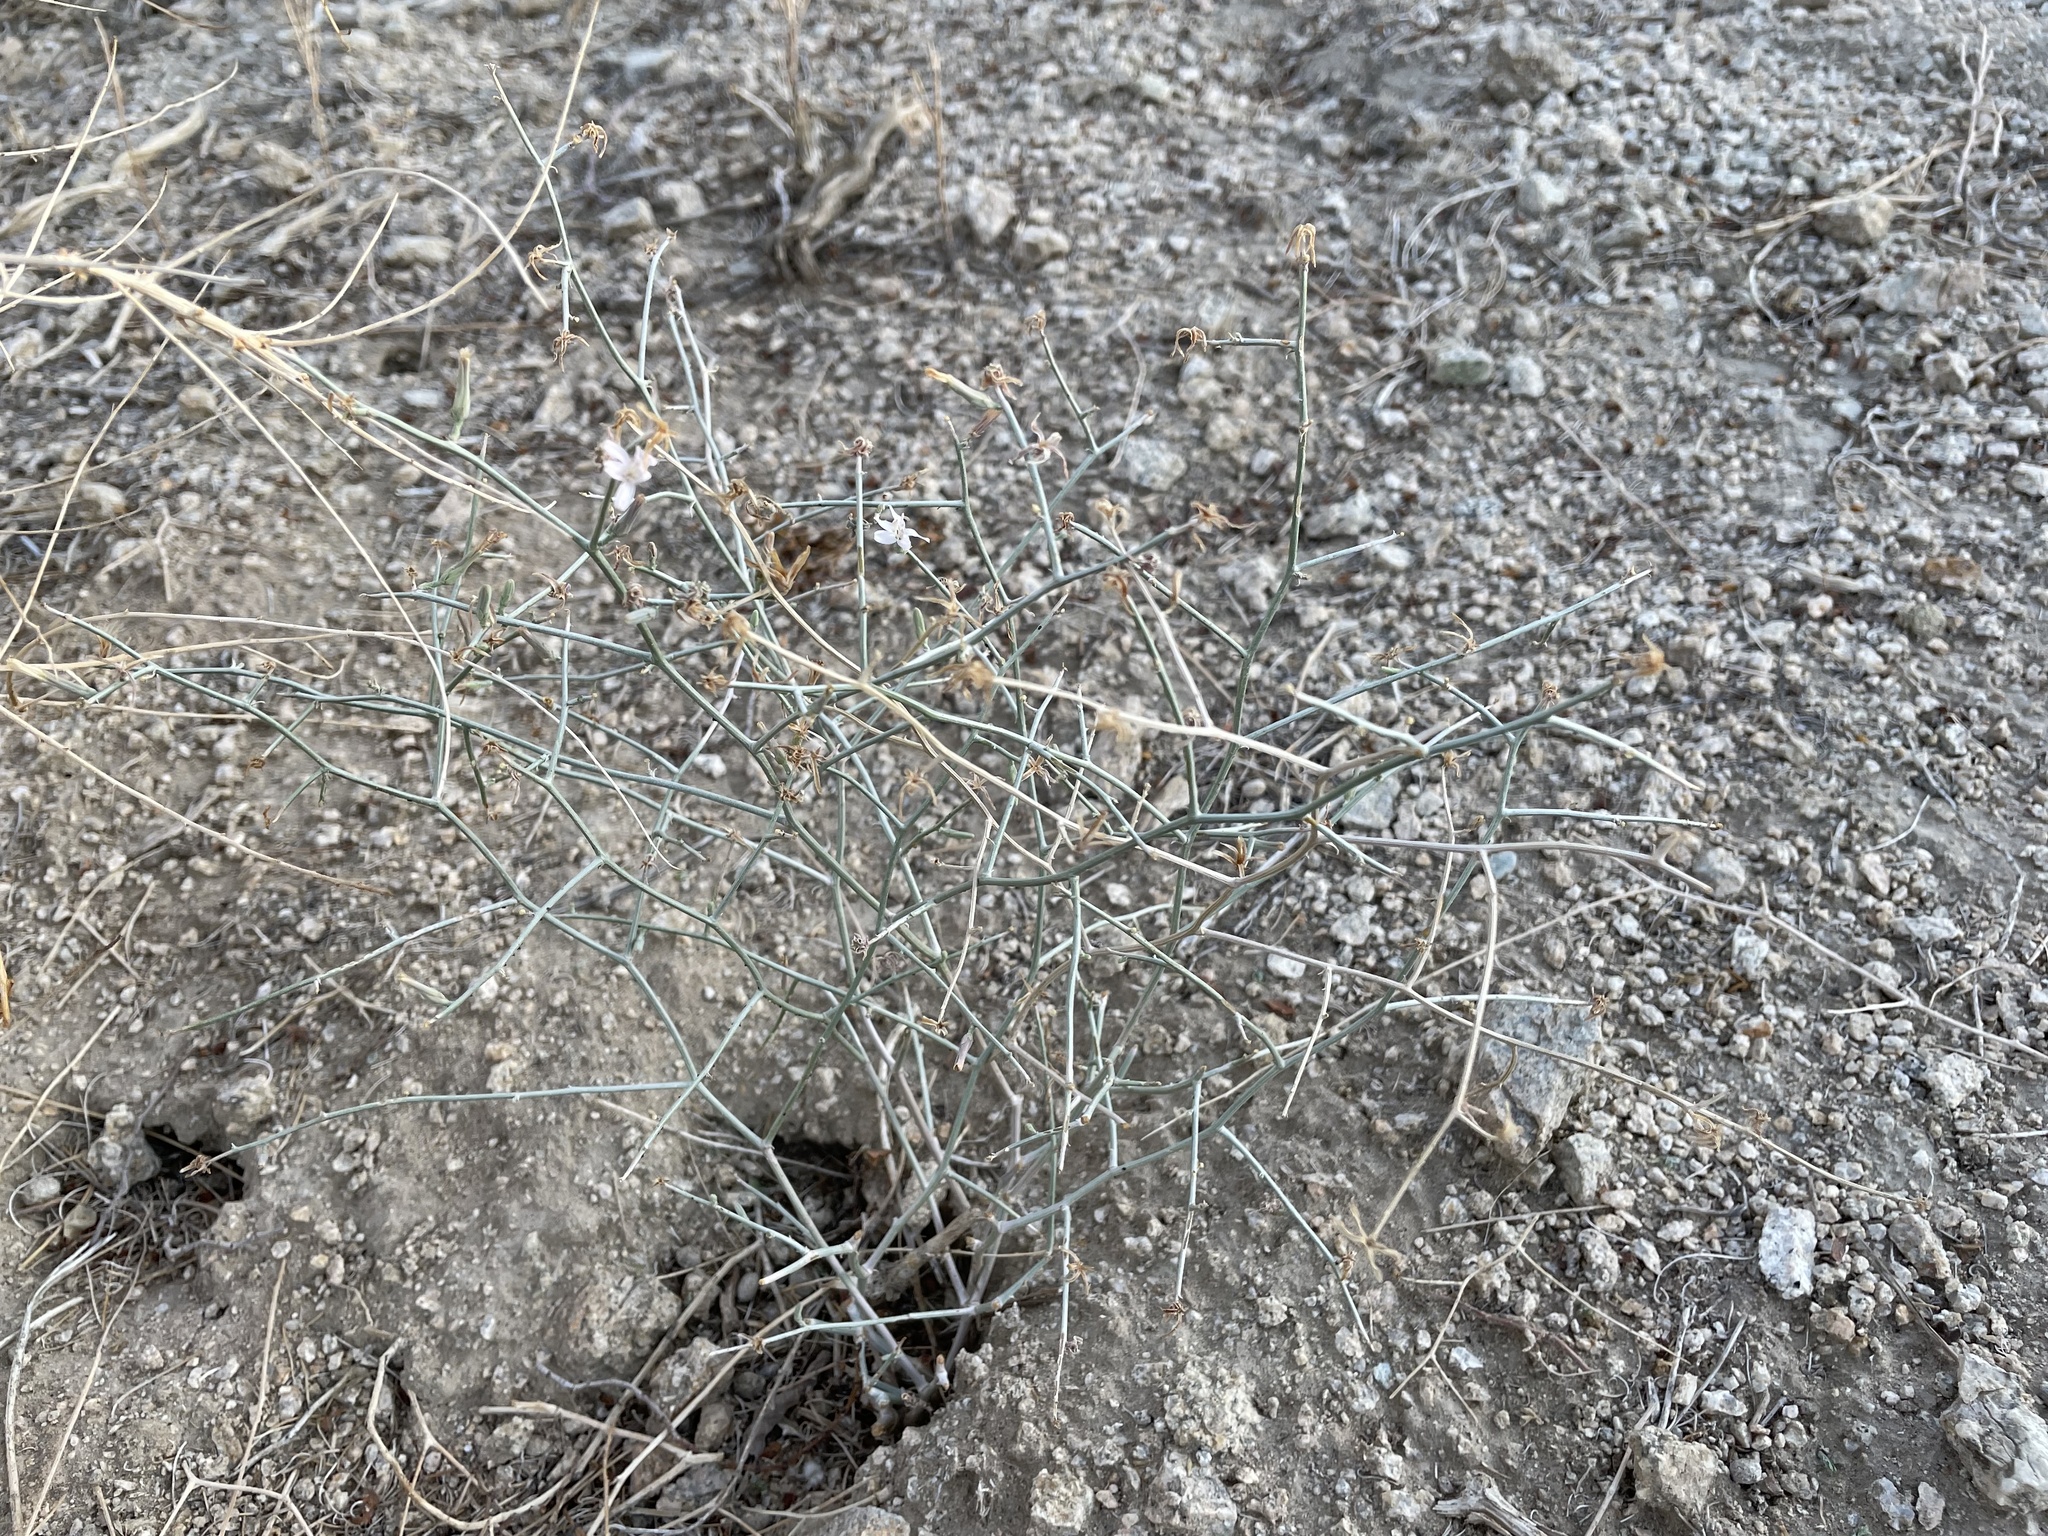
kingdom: Plantae
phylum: Tracheophyta
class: Magnoliopsida
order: Asterales
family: Asteraceae
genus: Stephanomeria
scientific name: Stephanomeria pauciflora
